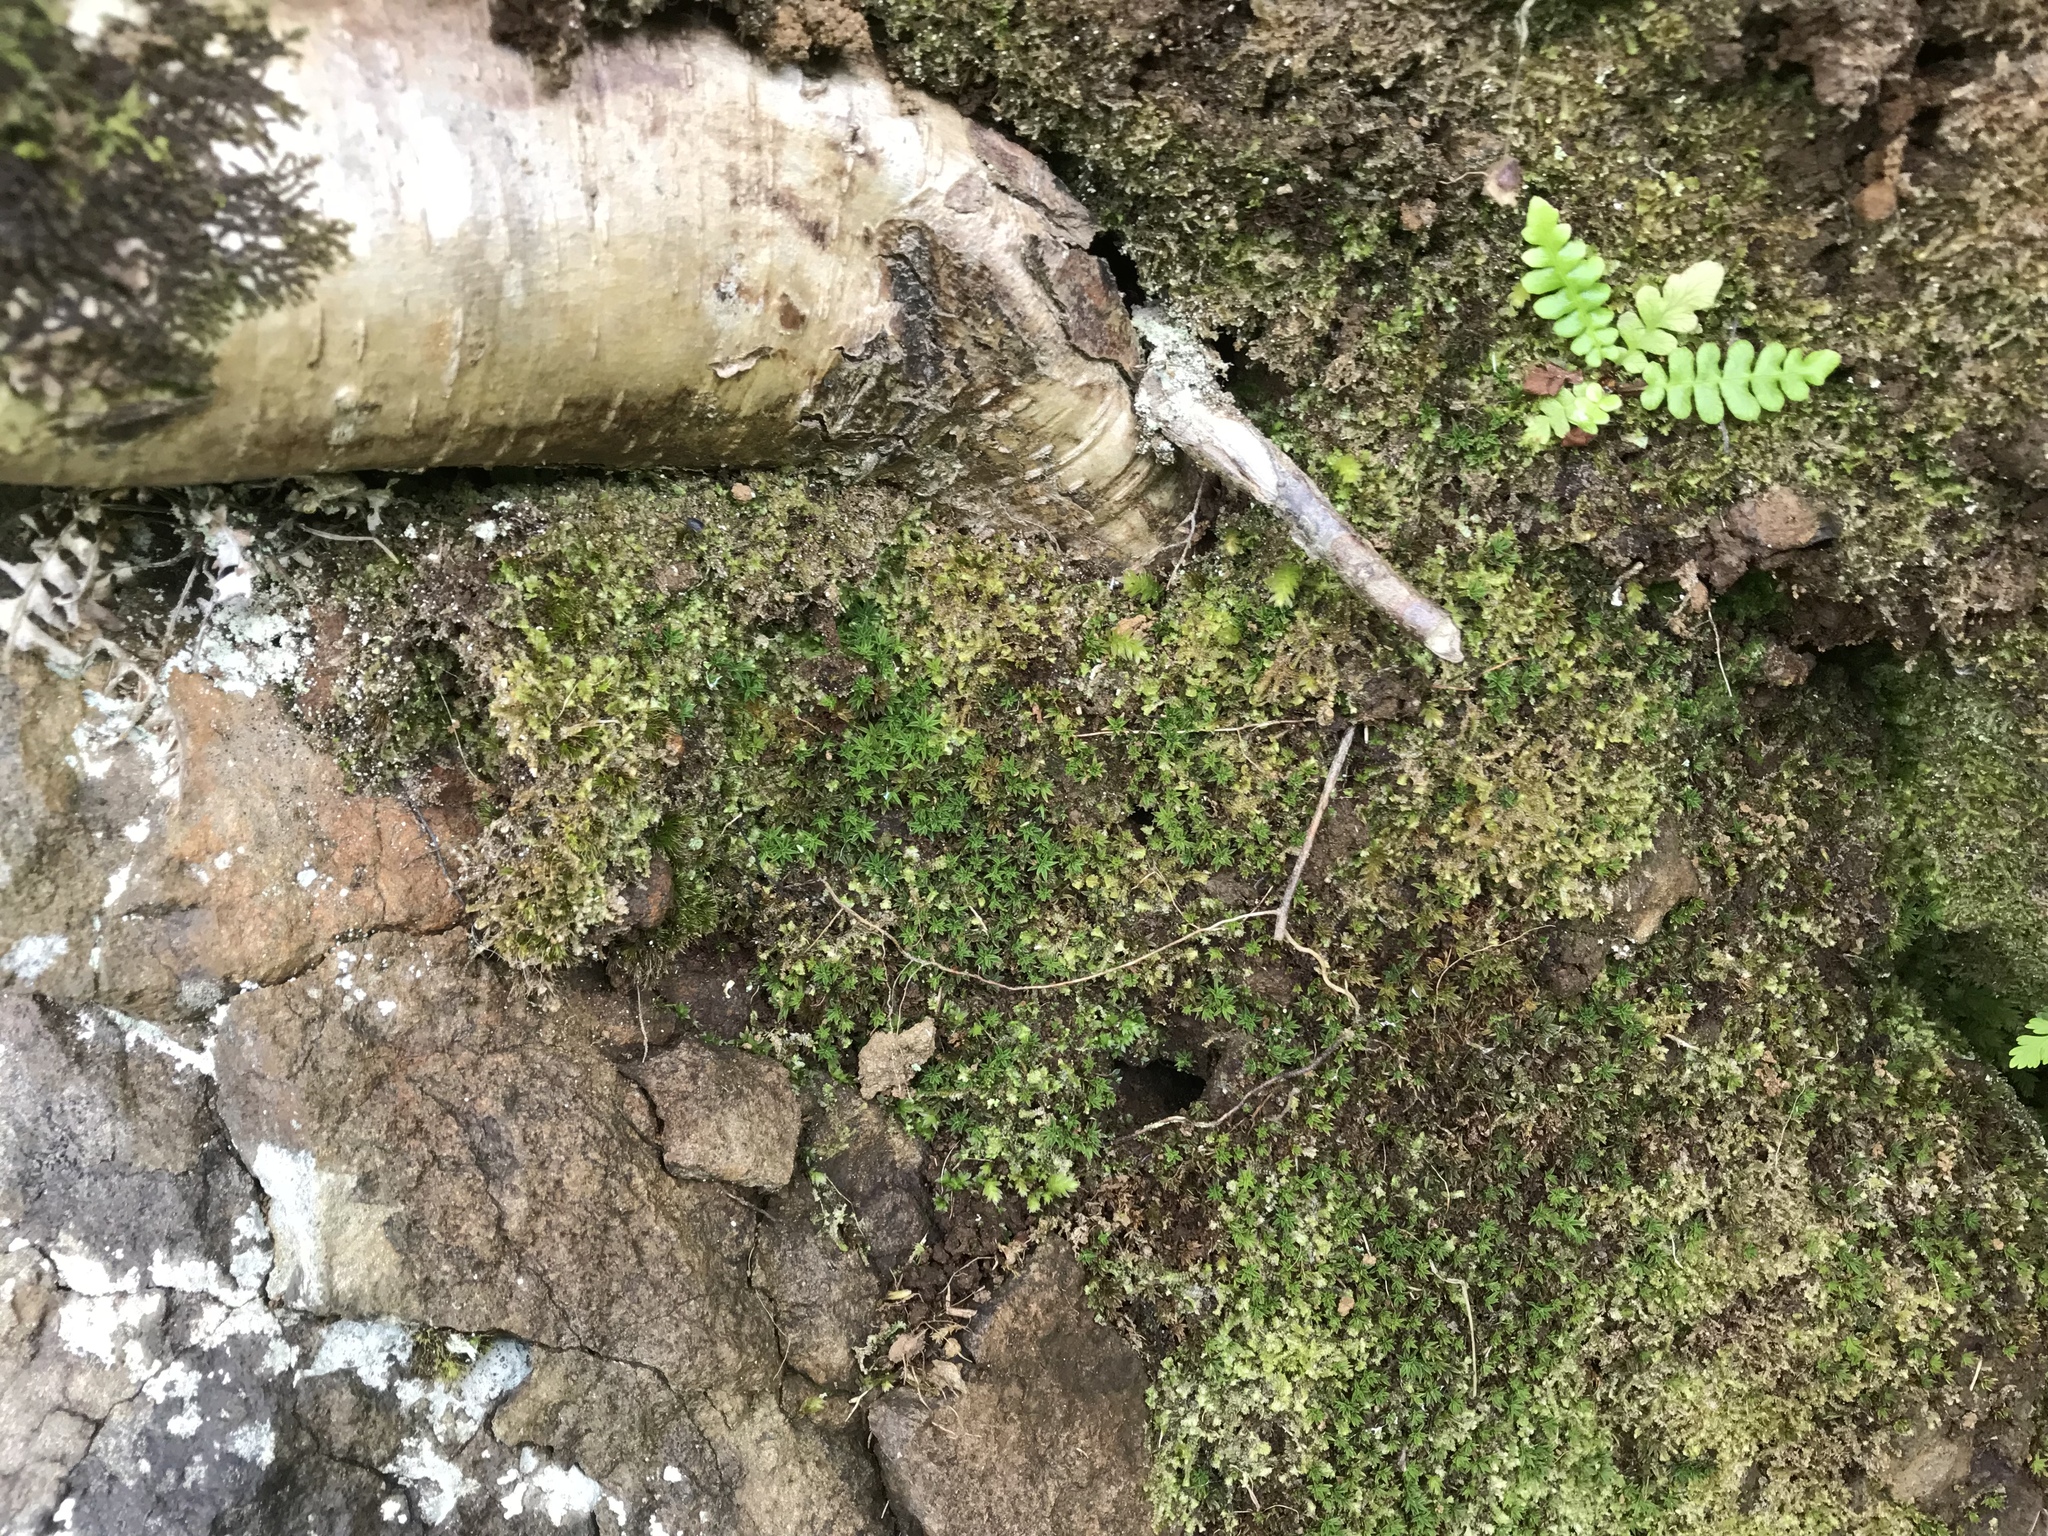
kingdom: Plantae
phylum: Bryophyta
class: Polytrichopsida
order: Polytrichales
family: Polytrichaceae
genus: Pogonatum
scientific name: Pogonatum aloides
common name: Aloe haircap
